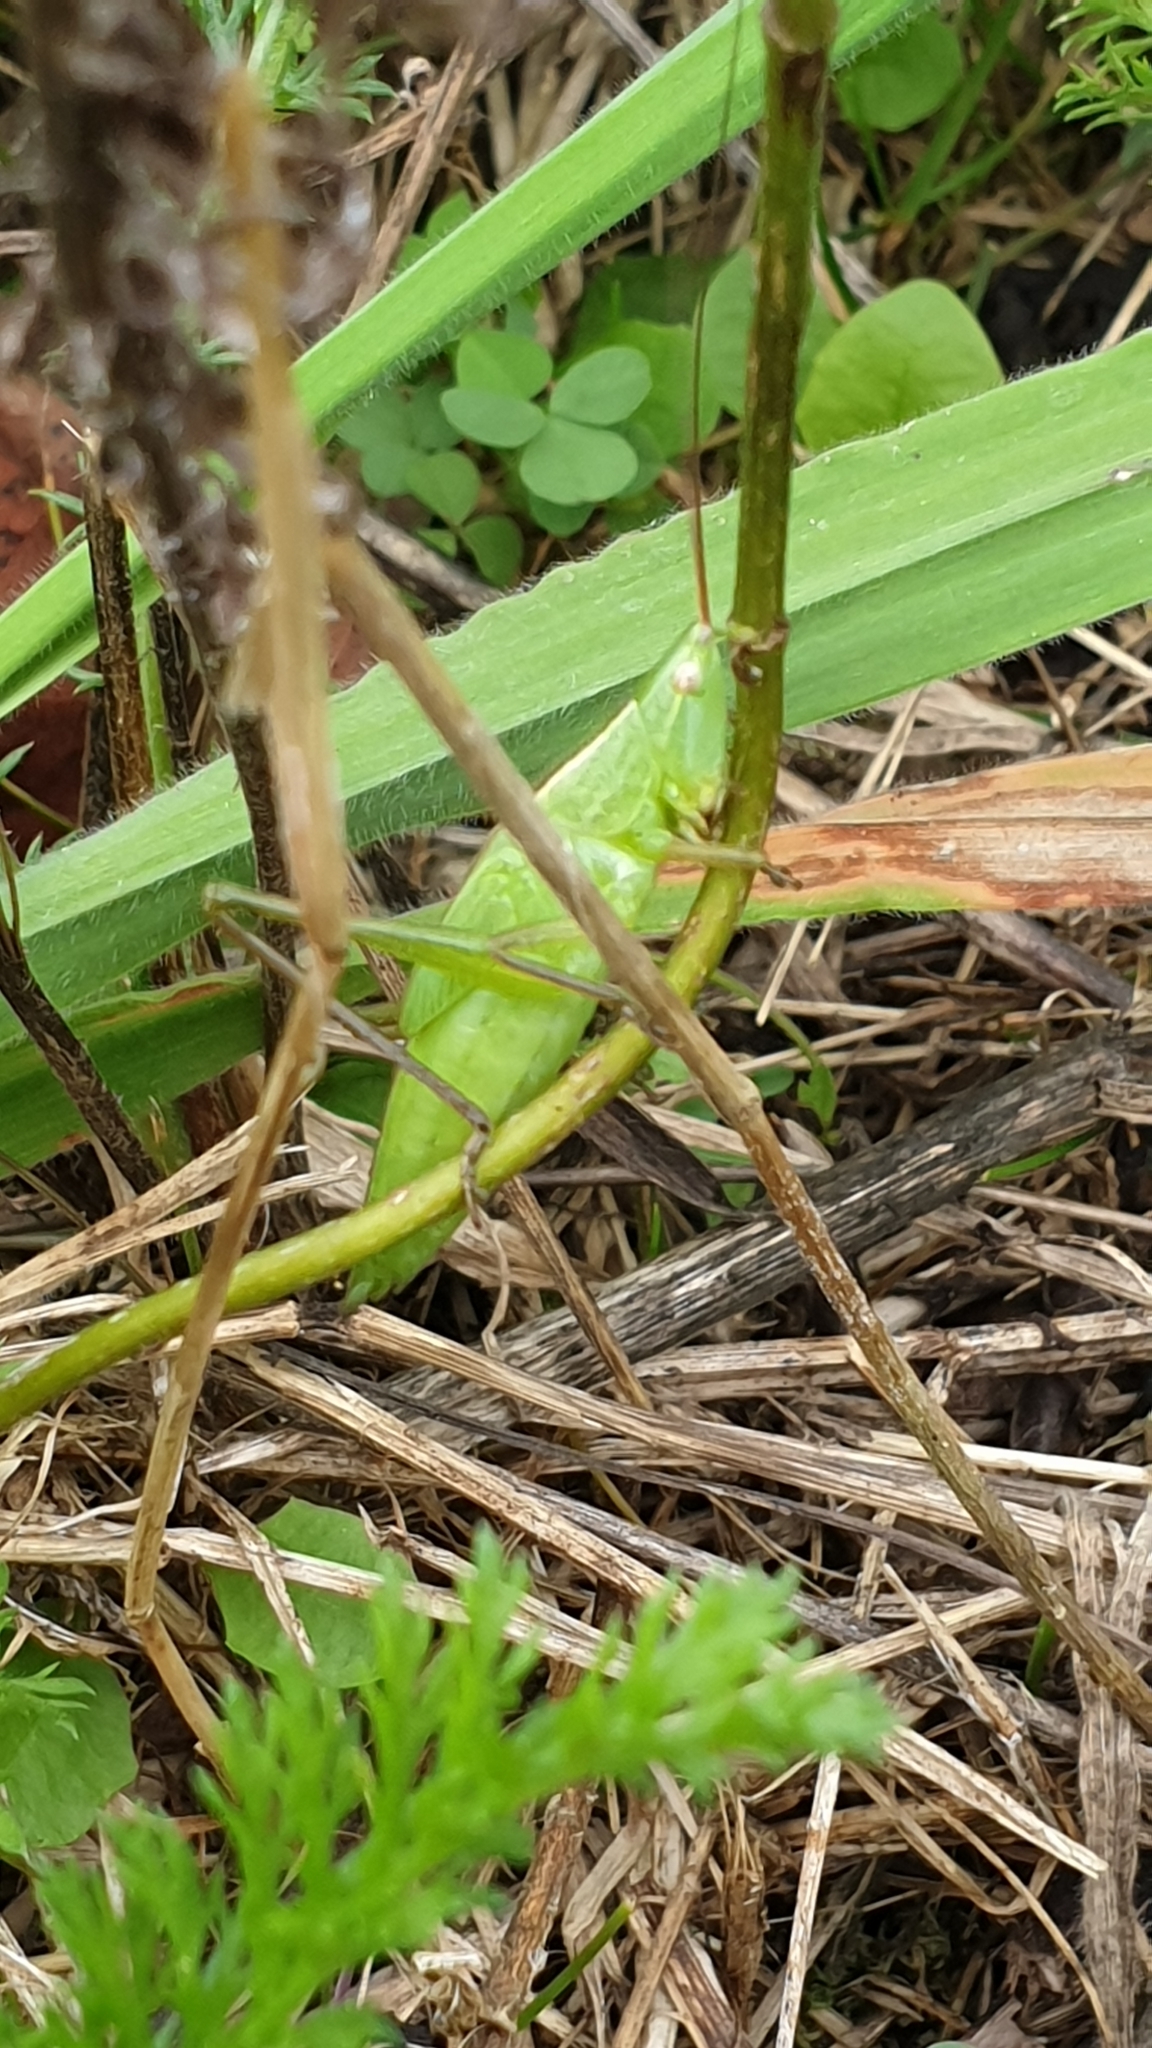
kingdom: Animalia
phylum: Arthropoda
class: Insecta
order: Orthoptera
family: Tettigoniidae
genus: Ruspolia
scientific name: Ruspolia nitidula
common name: Large conehead
